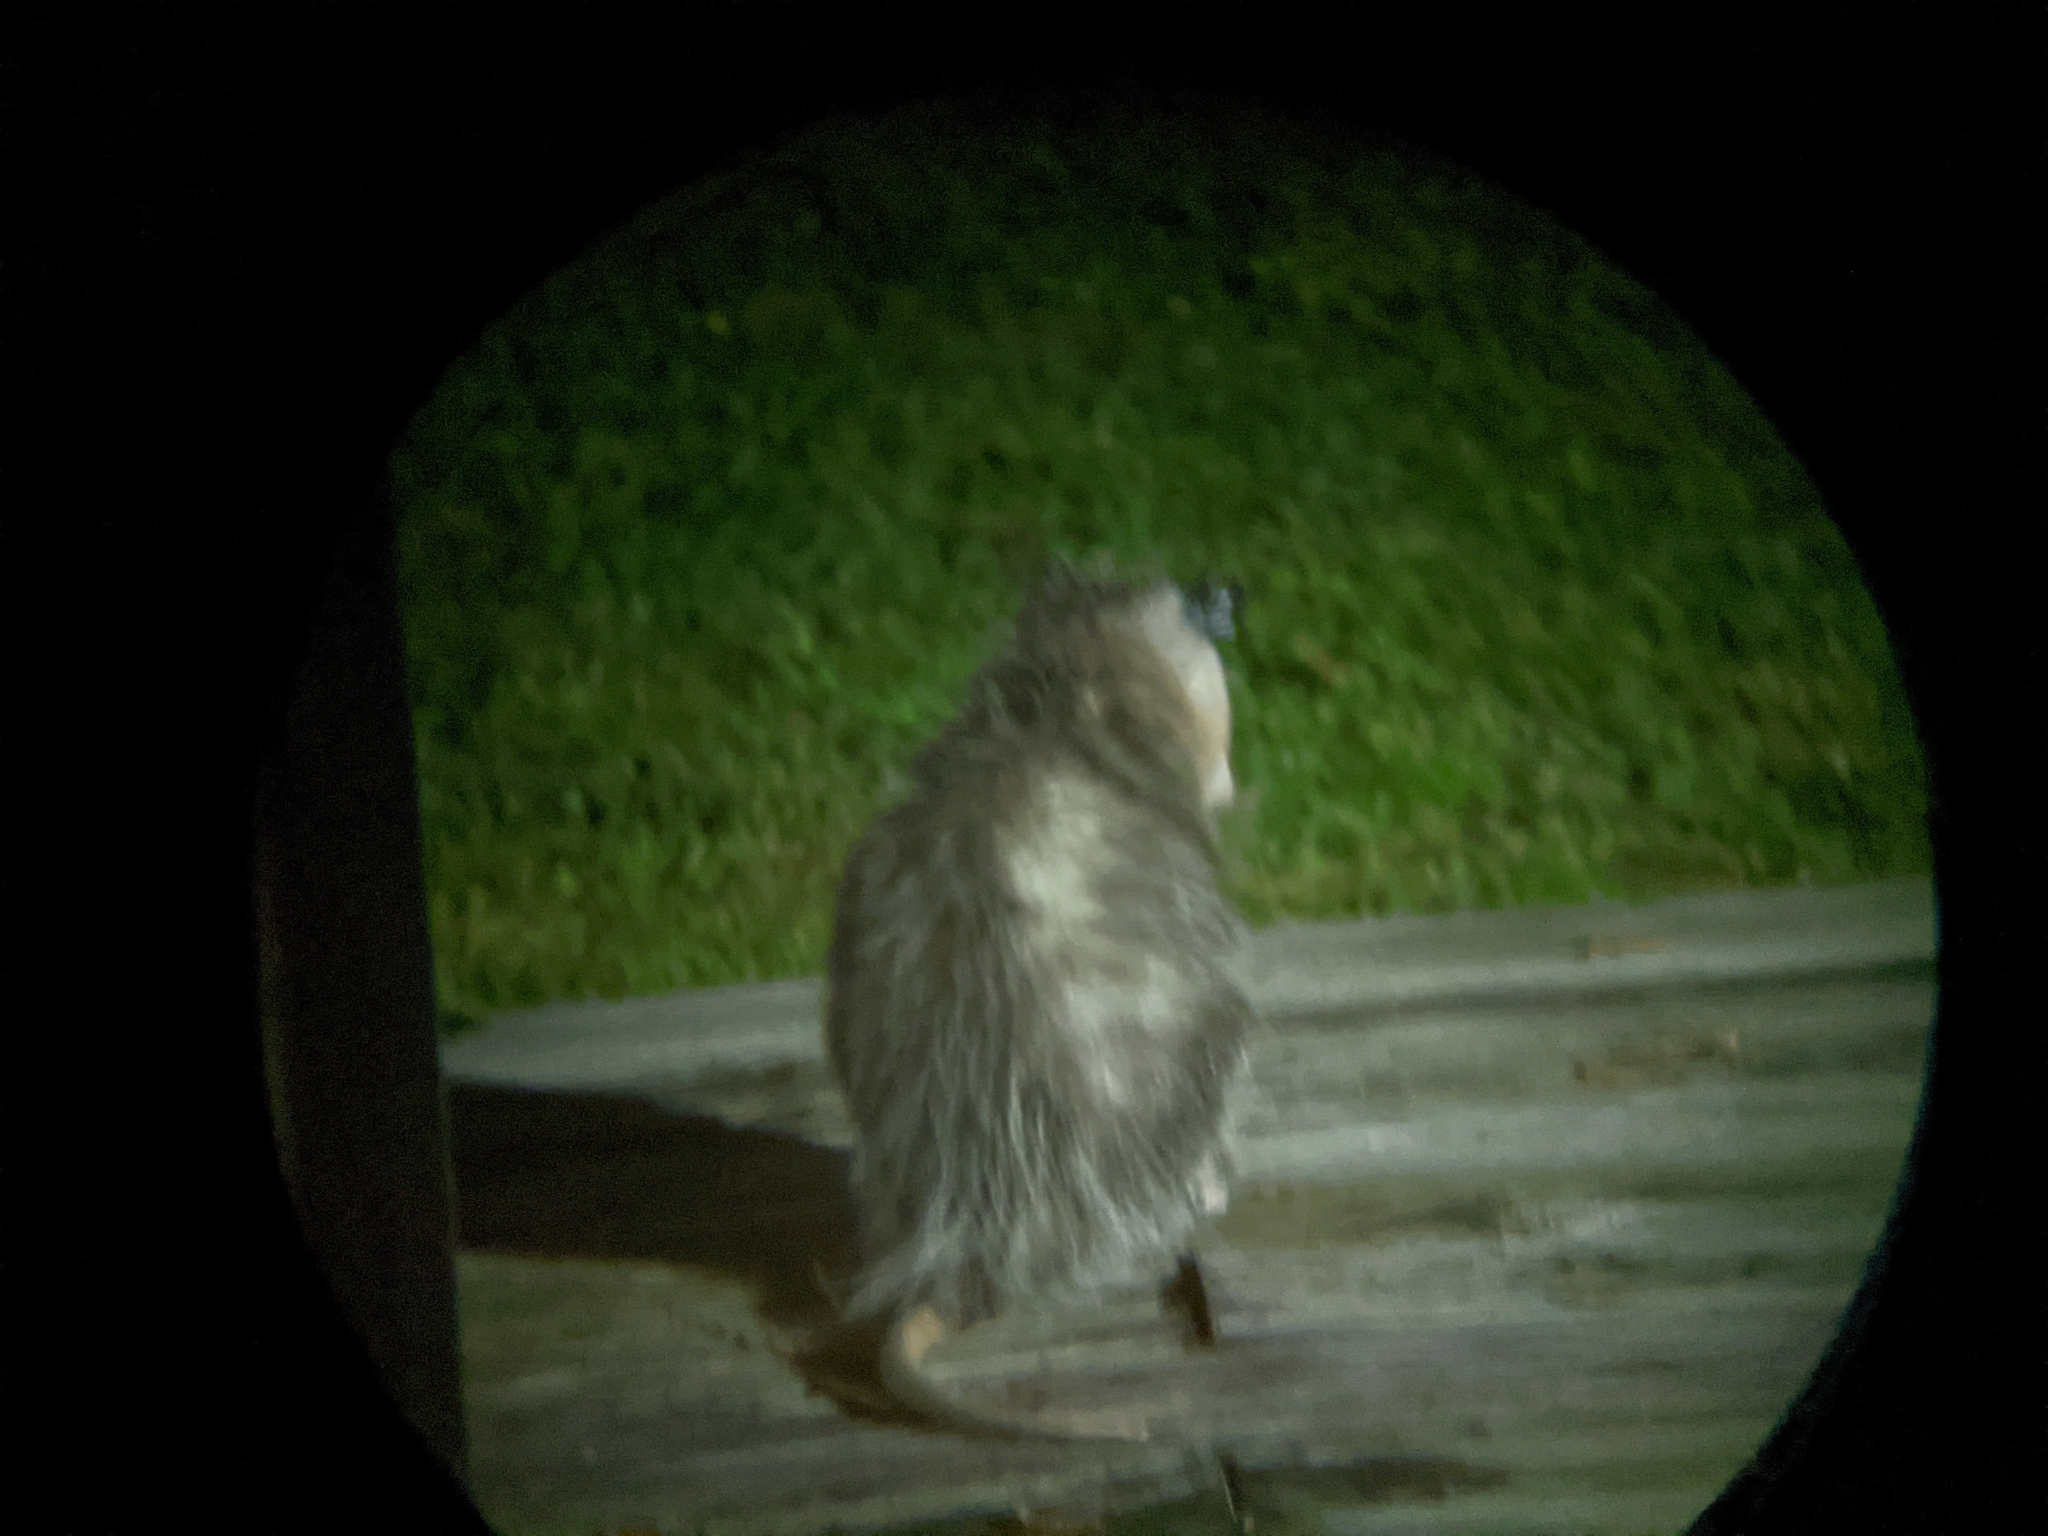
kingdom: Animalia
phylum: Chordata
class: Mammalia
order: Didelphimorphia
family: Didelphidae
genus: Didelphis
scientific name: Didelphis virginiana
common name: Virginia opossum
